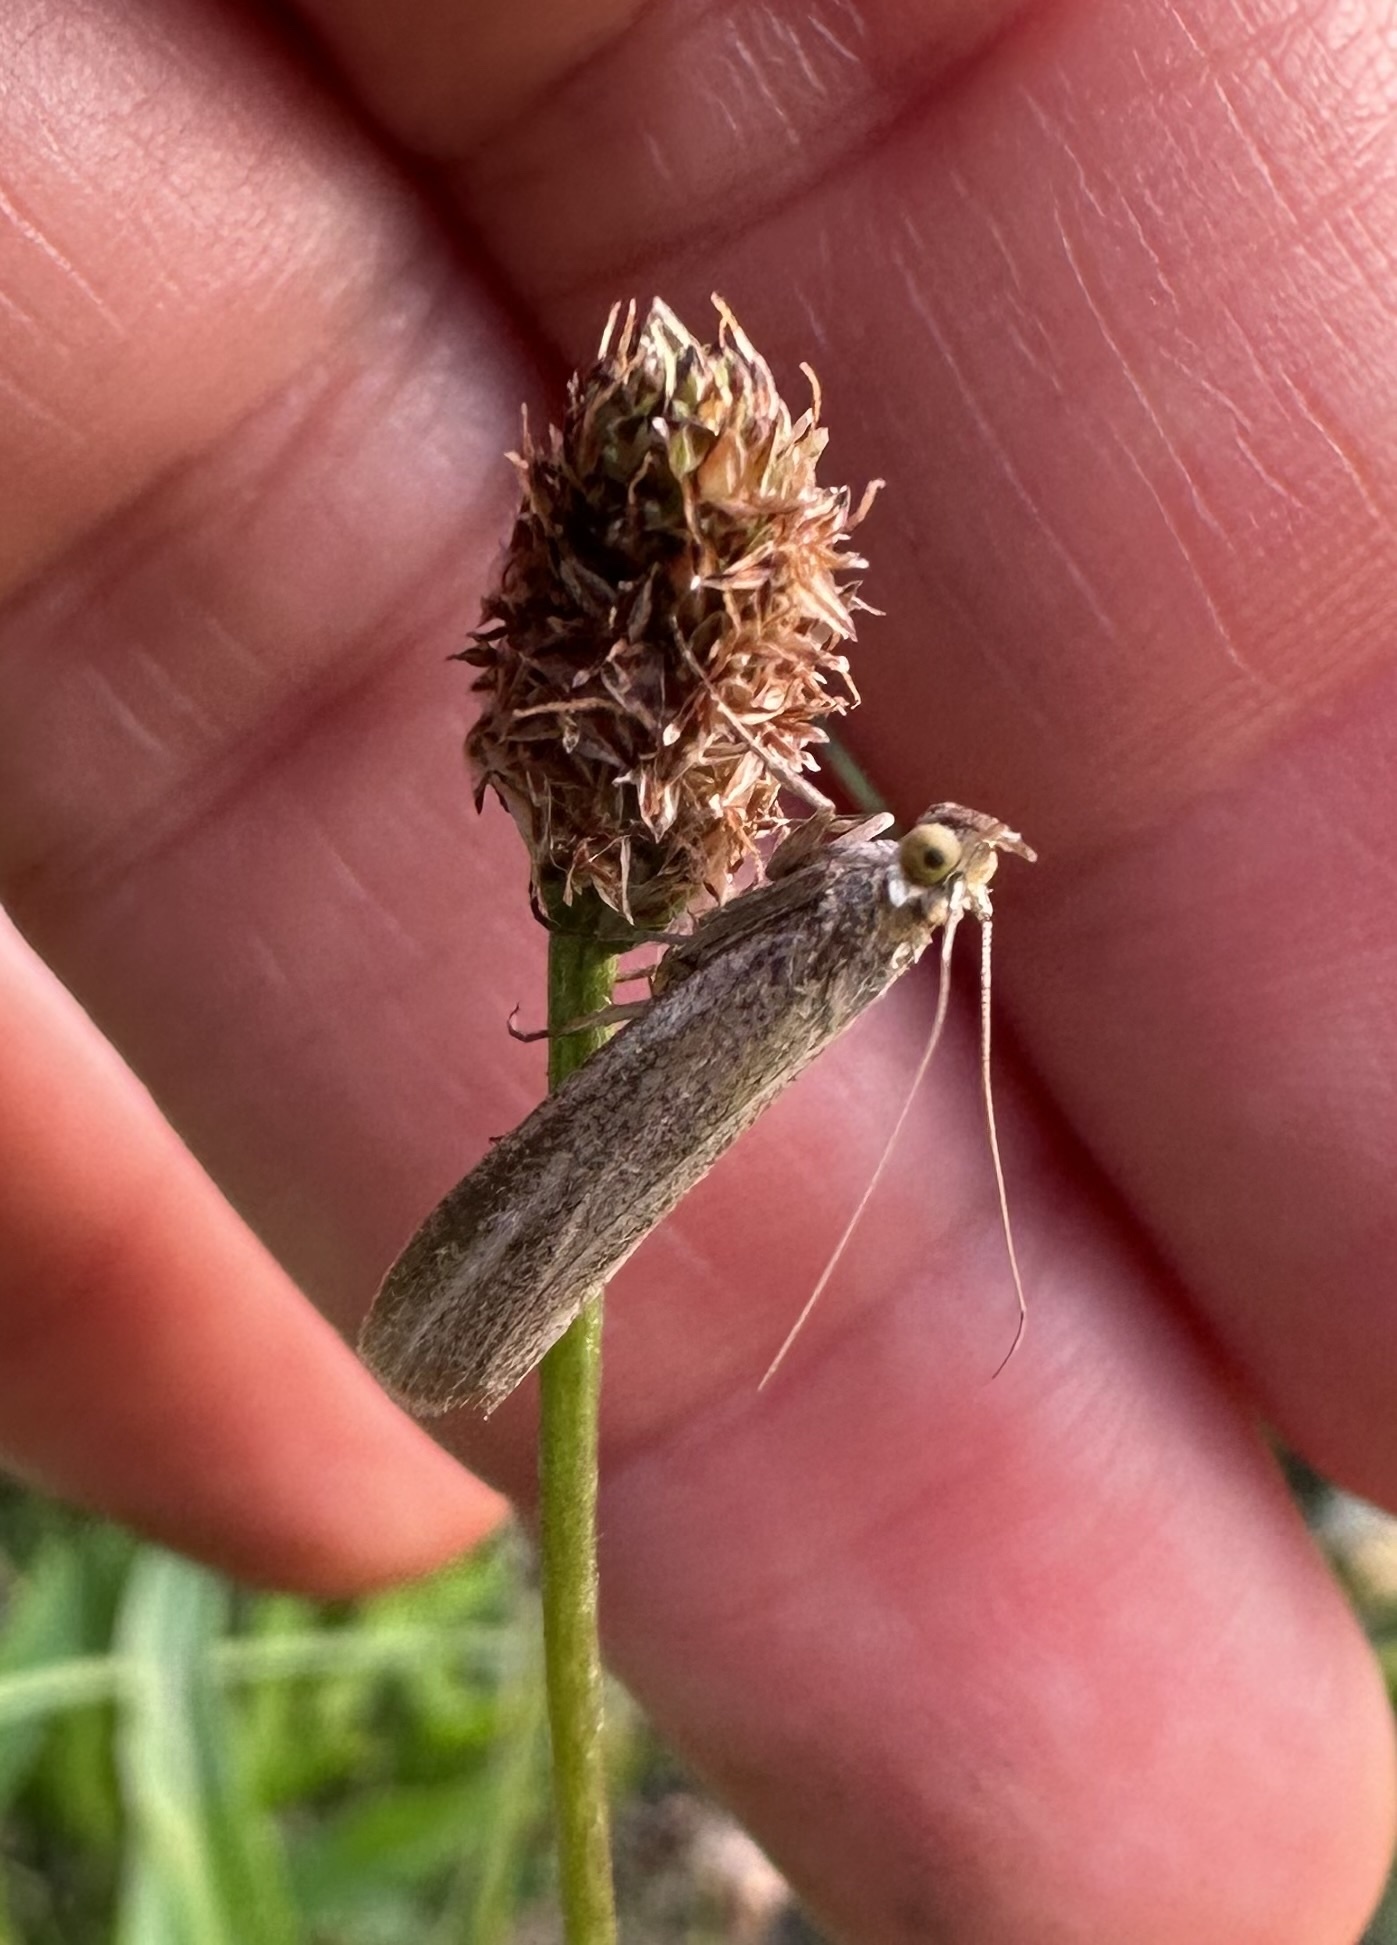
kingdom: Animalia
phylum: Arthropoda
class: Insecta
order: Lepidoptera
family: Pyralidae
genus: Selagia
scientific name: Selagia argyrella
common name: Silvery knot-horn
